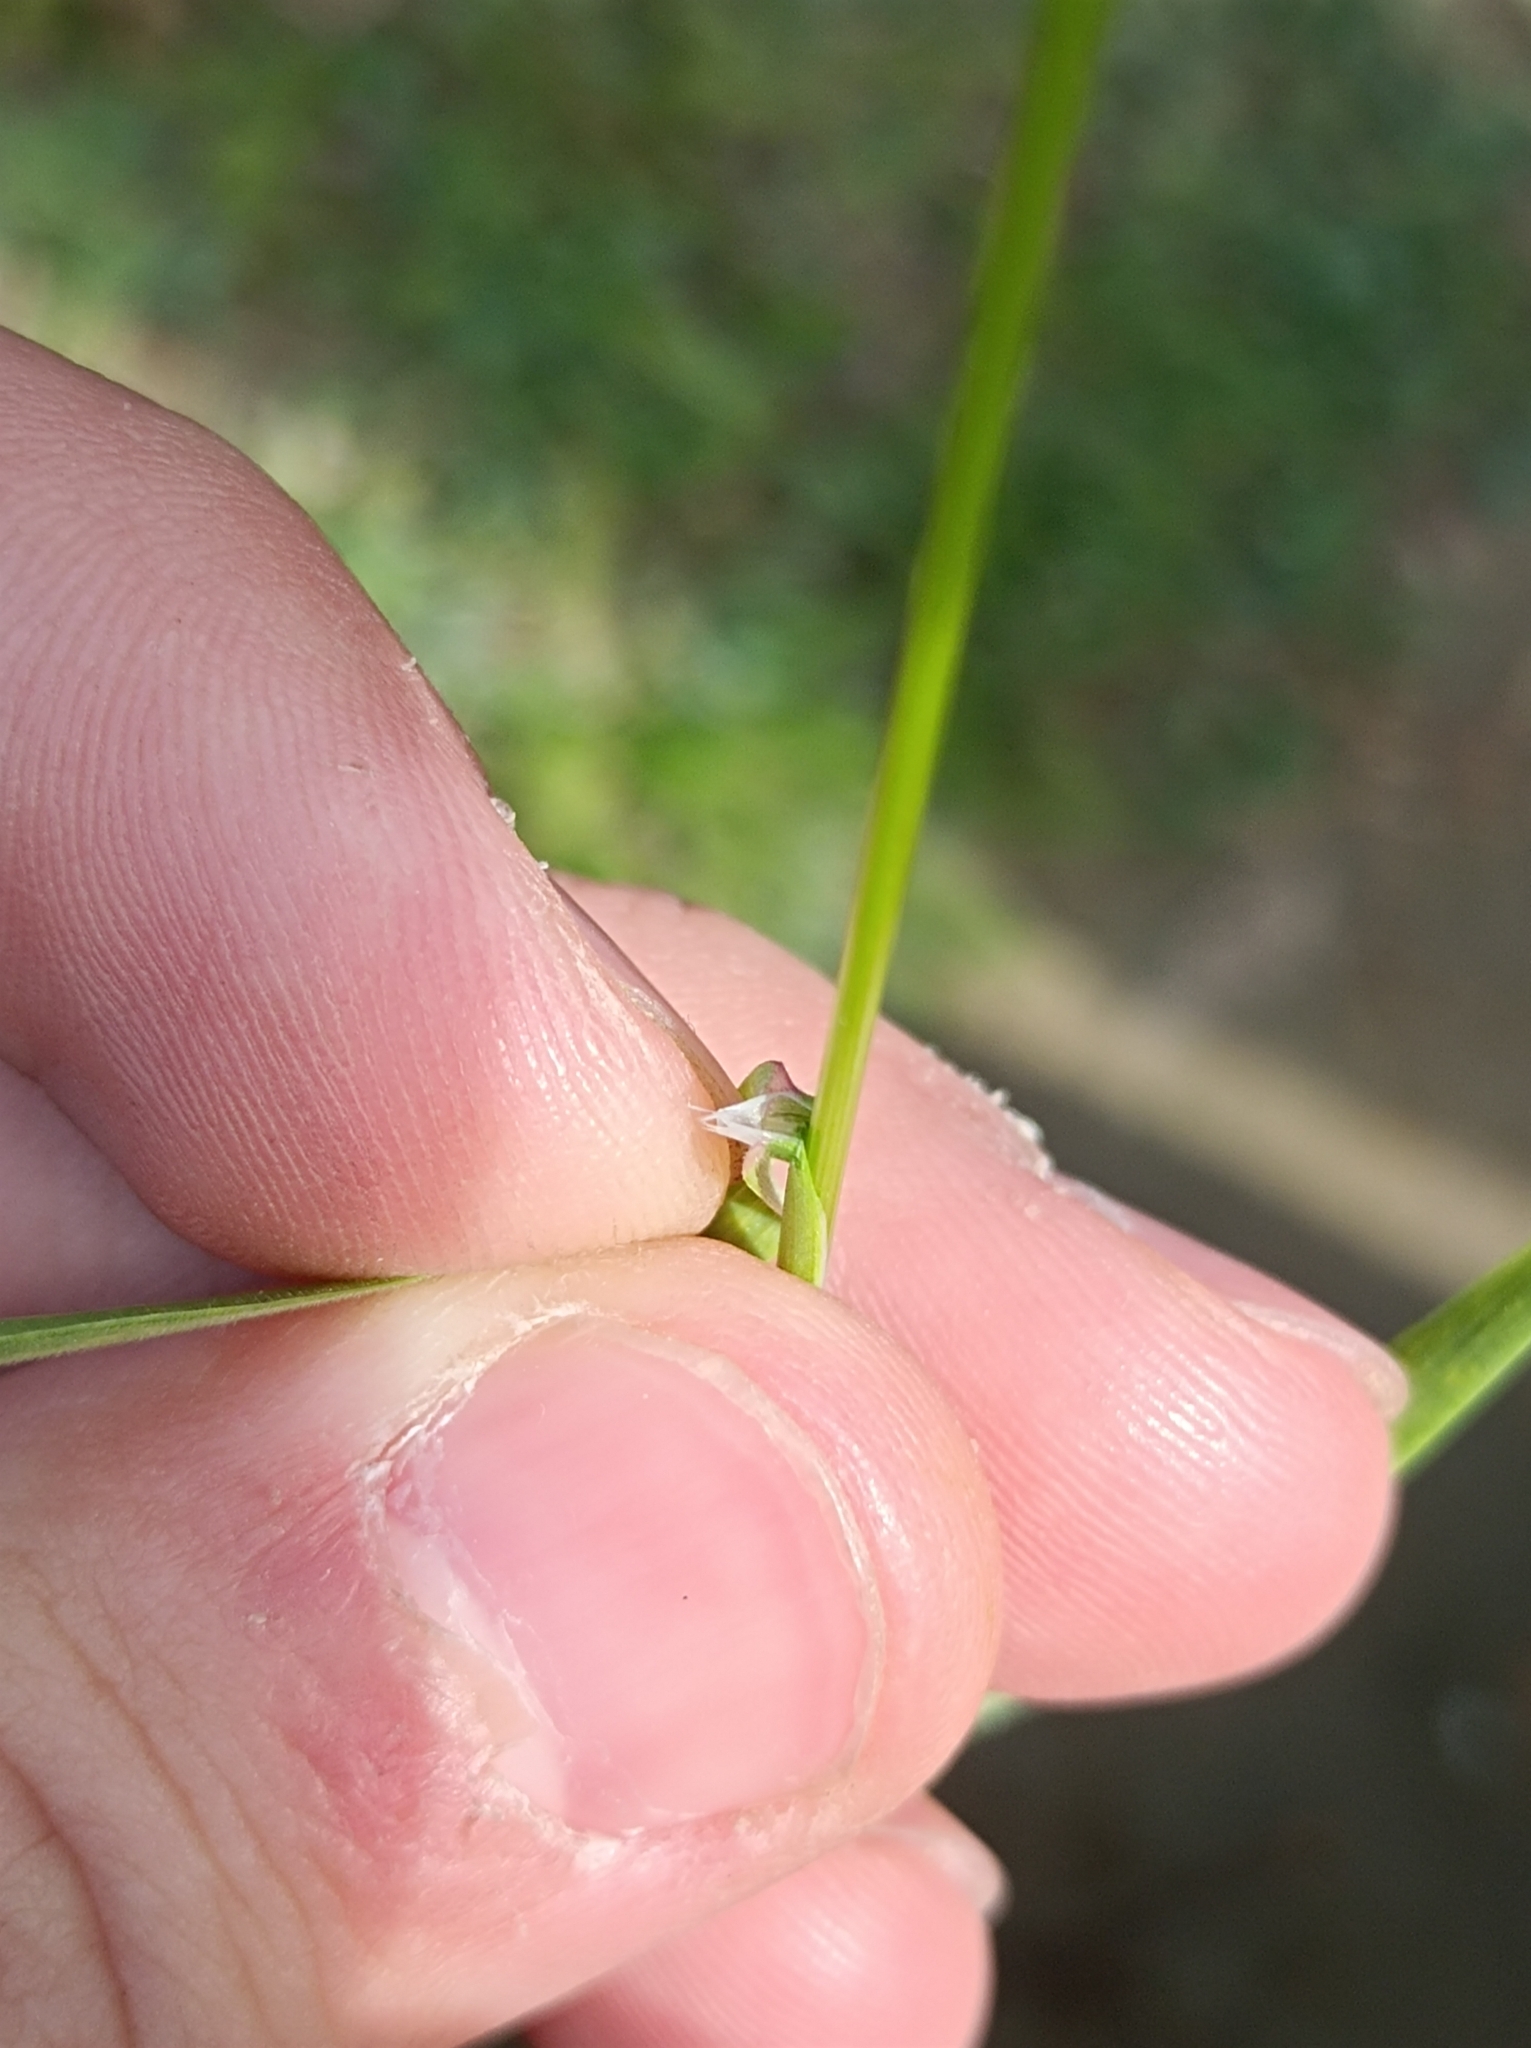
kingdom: Plantae
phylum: Tracheophyta
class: Liliopsida
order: Poales
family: Poaceae
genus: Bromus
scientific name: Bromus sterilis
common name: Poverty brome
